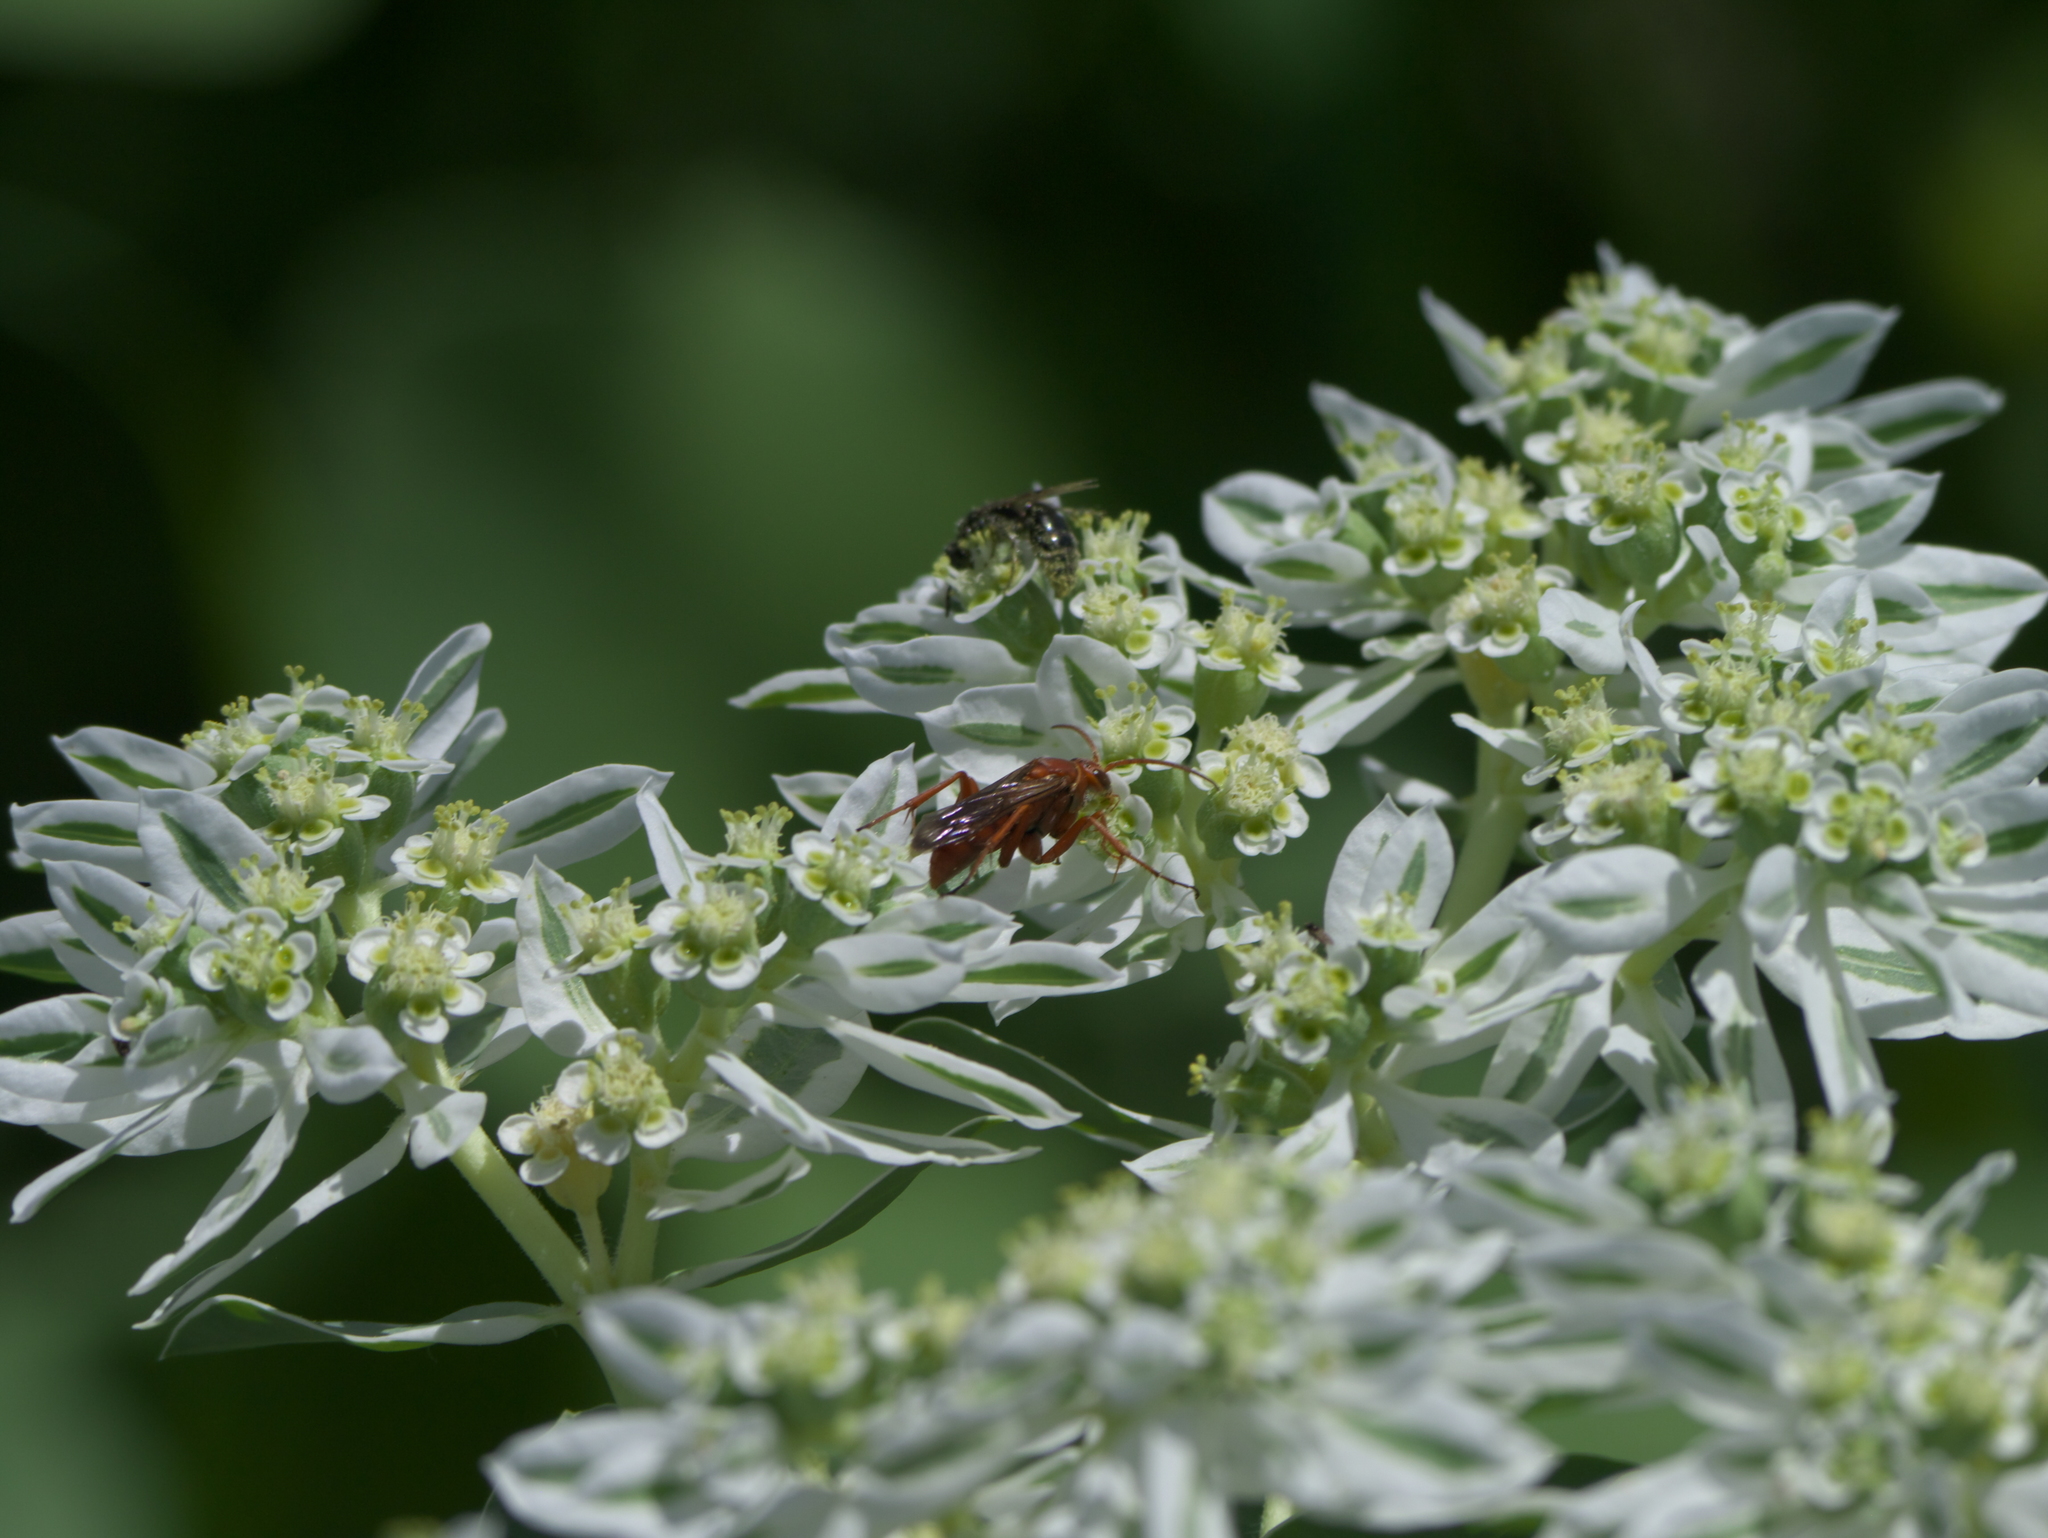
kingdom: Plantae
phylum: Tracheophyta
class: Magnoliopsida
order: Malpighiales
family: Euphorbiaceae
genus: Euphorbia
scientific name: Euphorbia marginata
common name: Ghostweed
